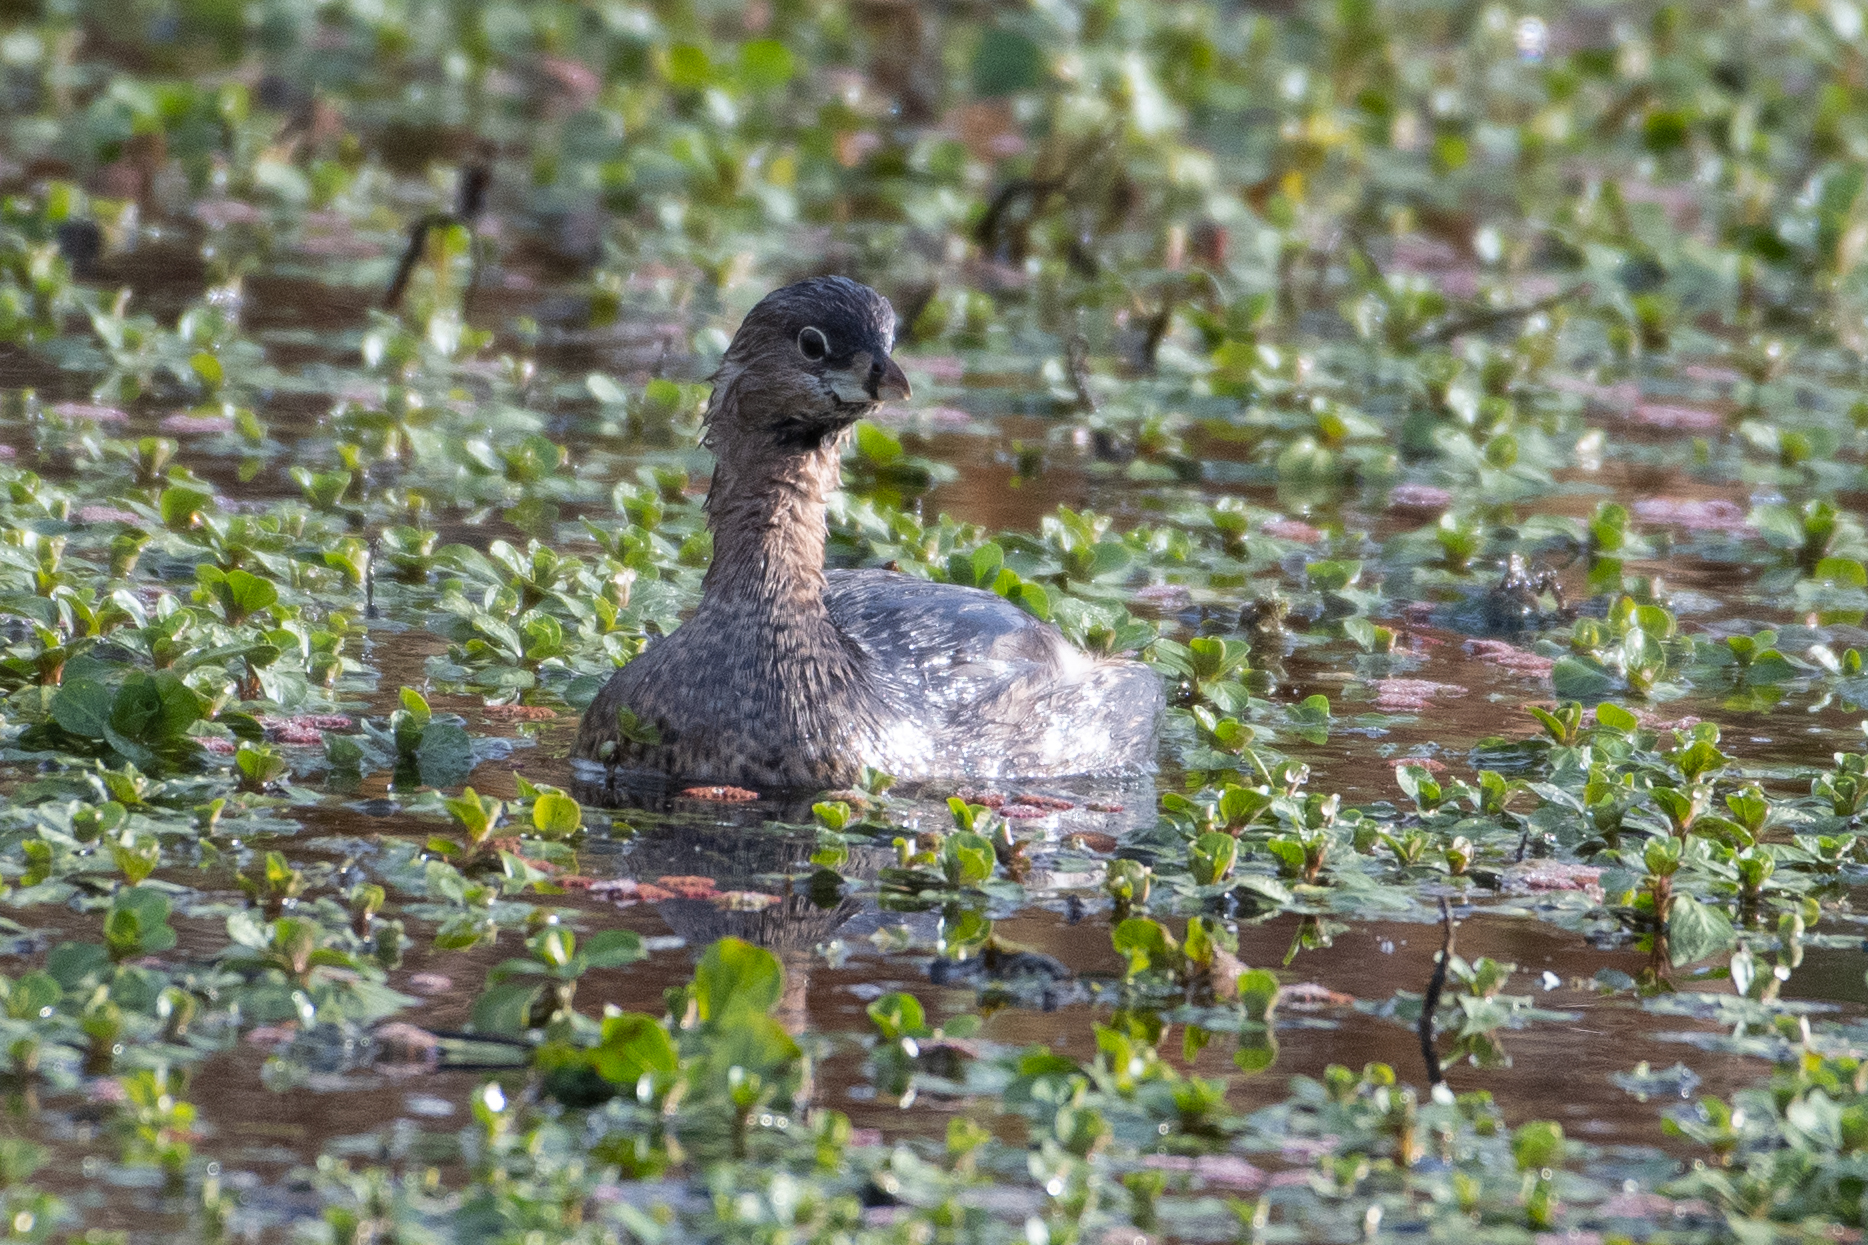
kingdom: Animalia
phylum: Chordata
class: Aves
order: Podicipediformes
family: Podicipedidae
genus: Podilymbus
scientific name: Podilymbus podiceps
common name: Pied-billed grebe
